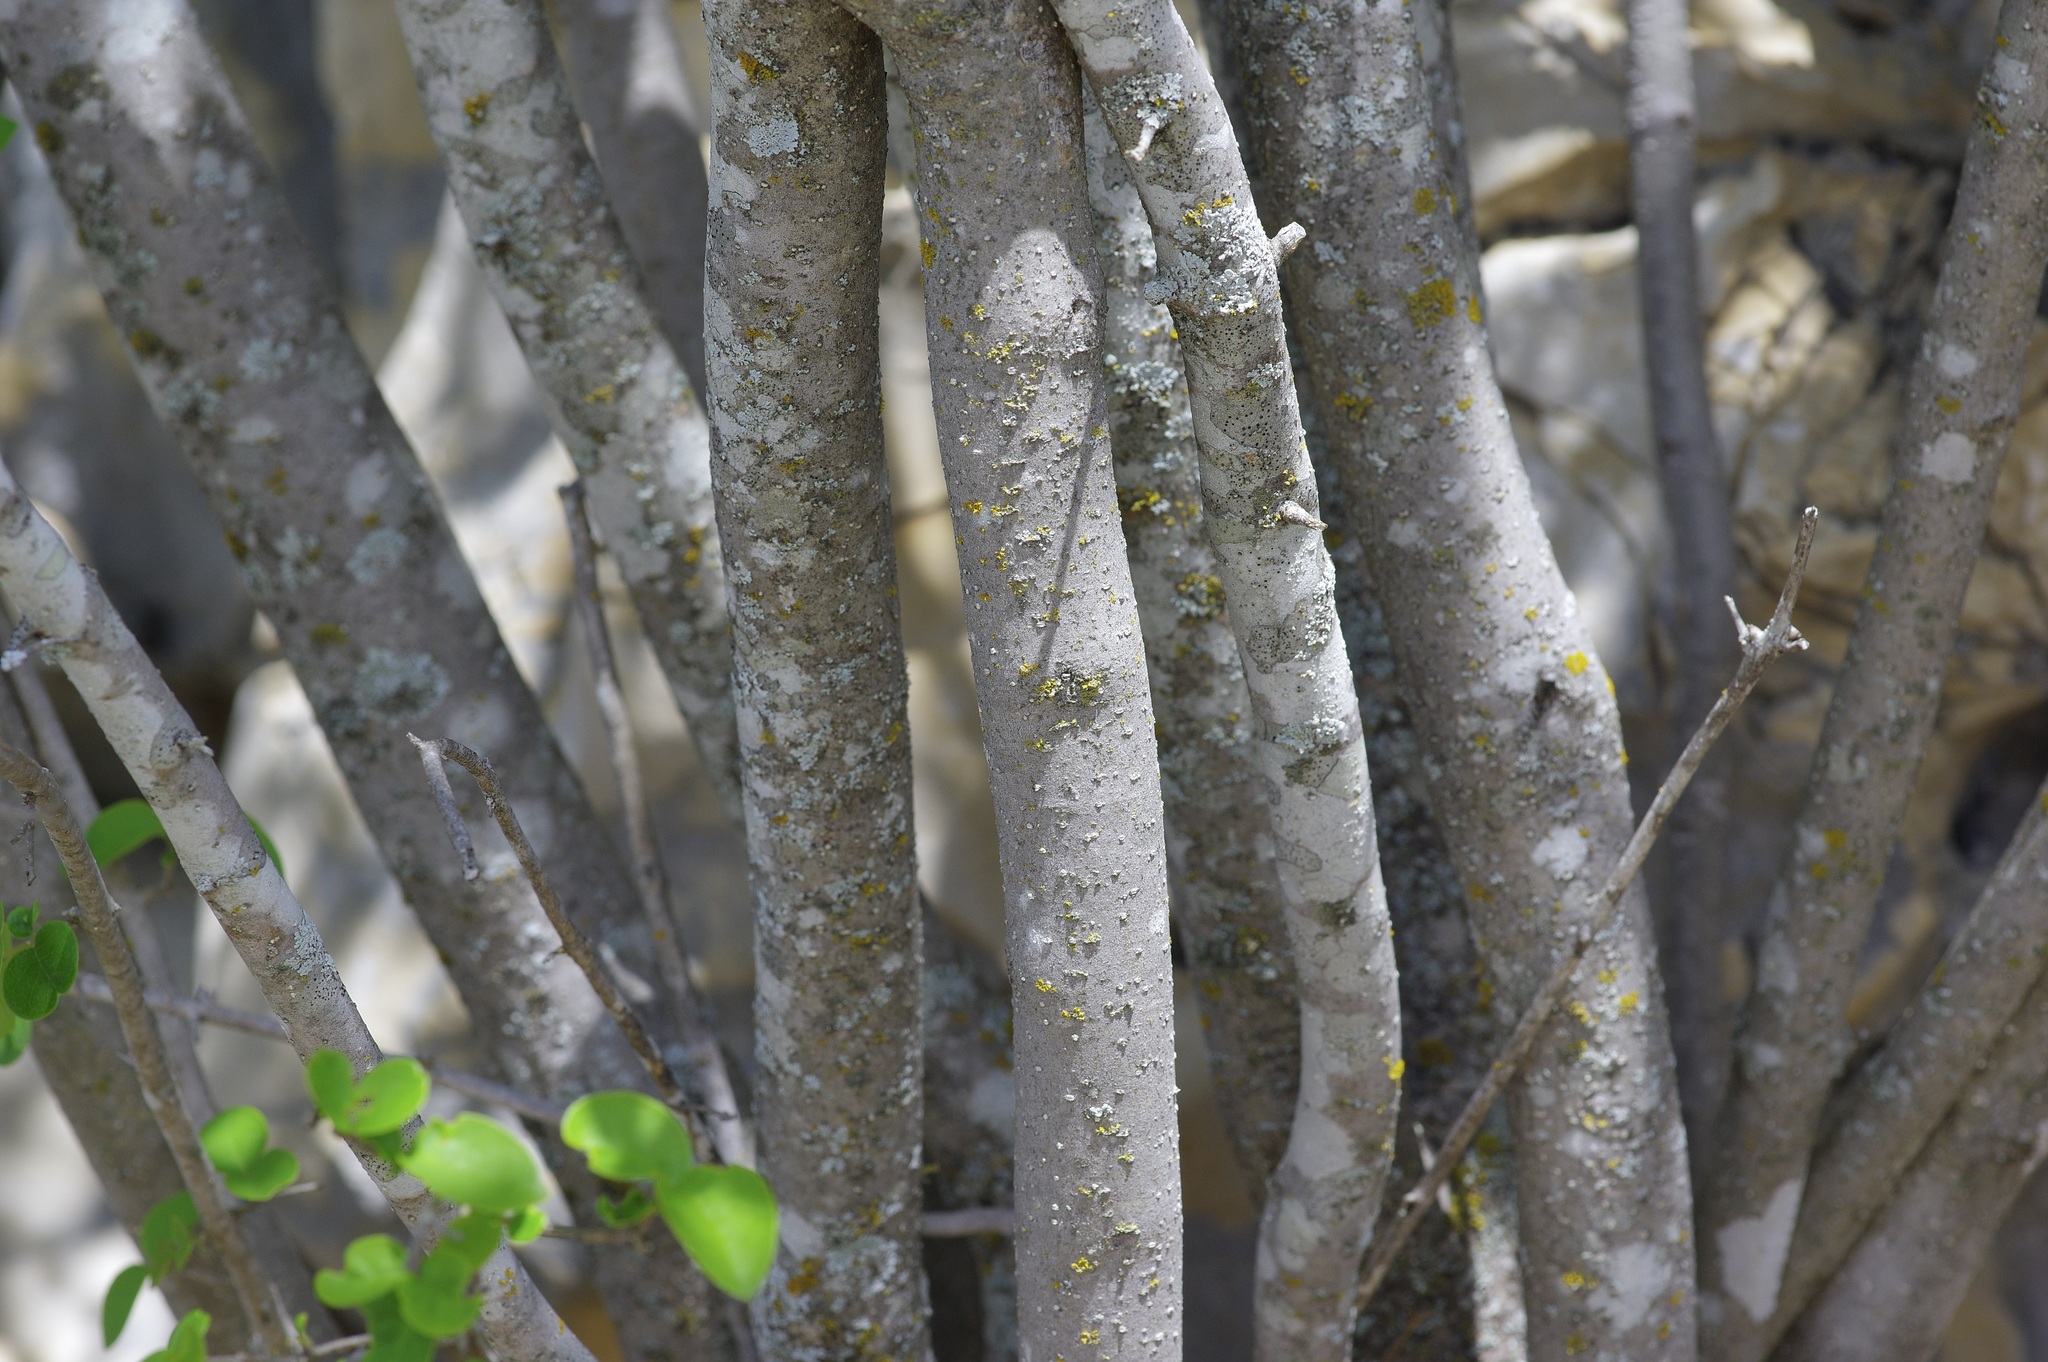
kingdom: Plantae
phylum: Tracheophyta
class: Magnoliopsida
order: Lamiales
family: Oleaceae
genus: Forestiera
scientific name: Forestiera reticulata
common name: Netleaf swamp-privet
